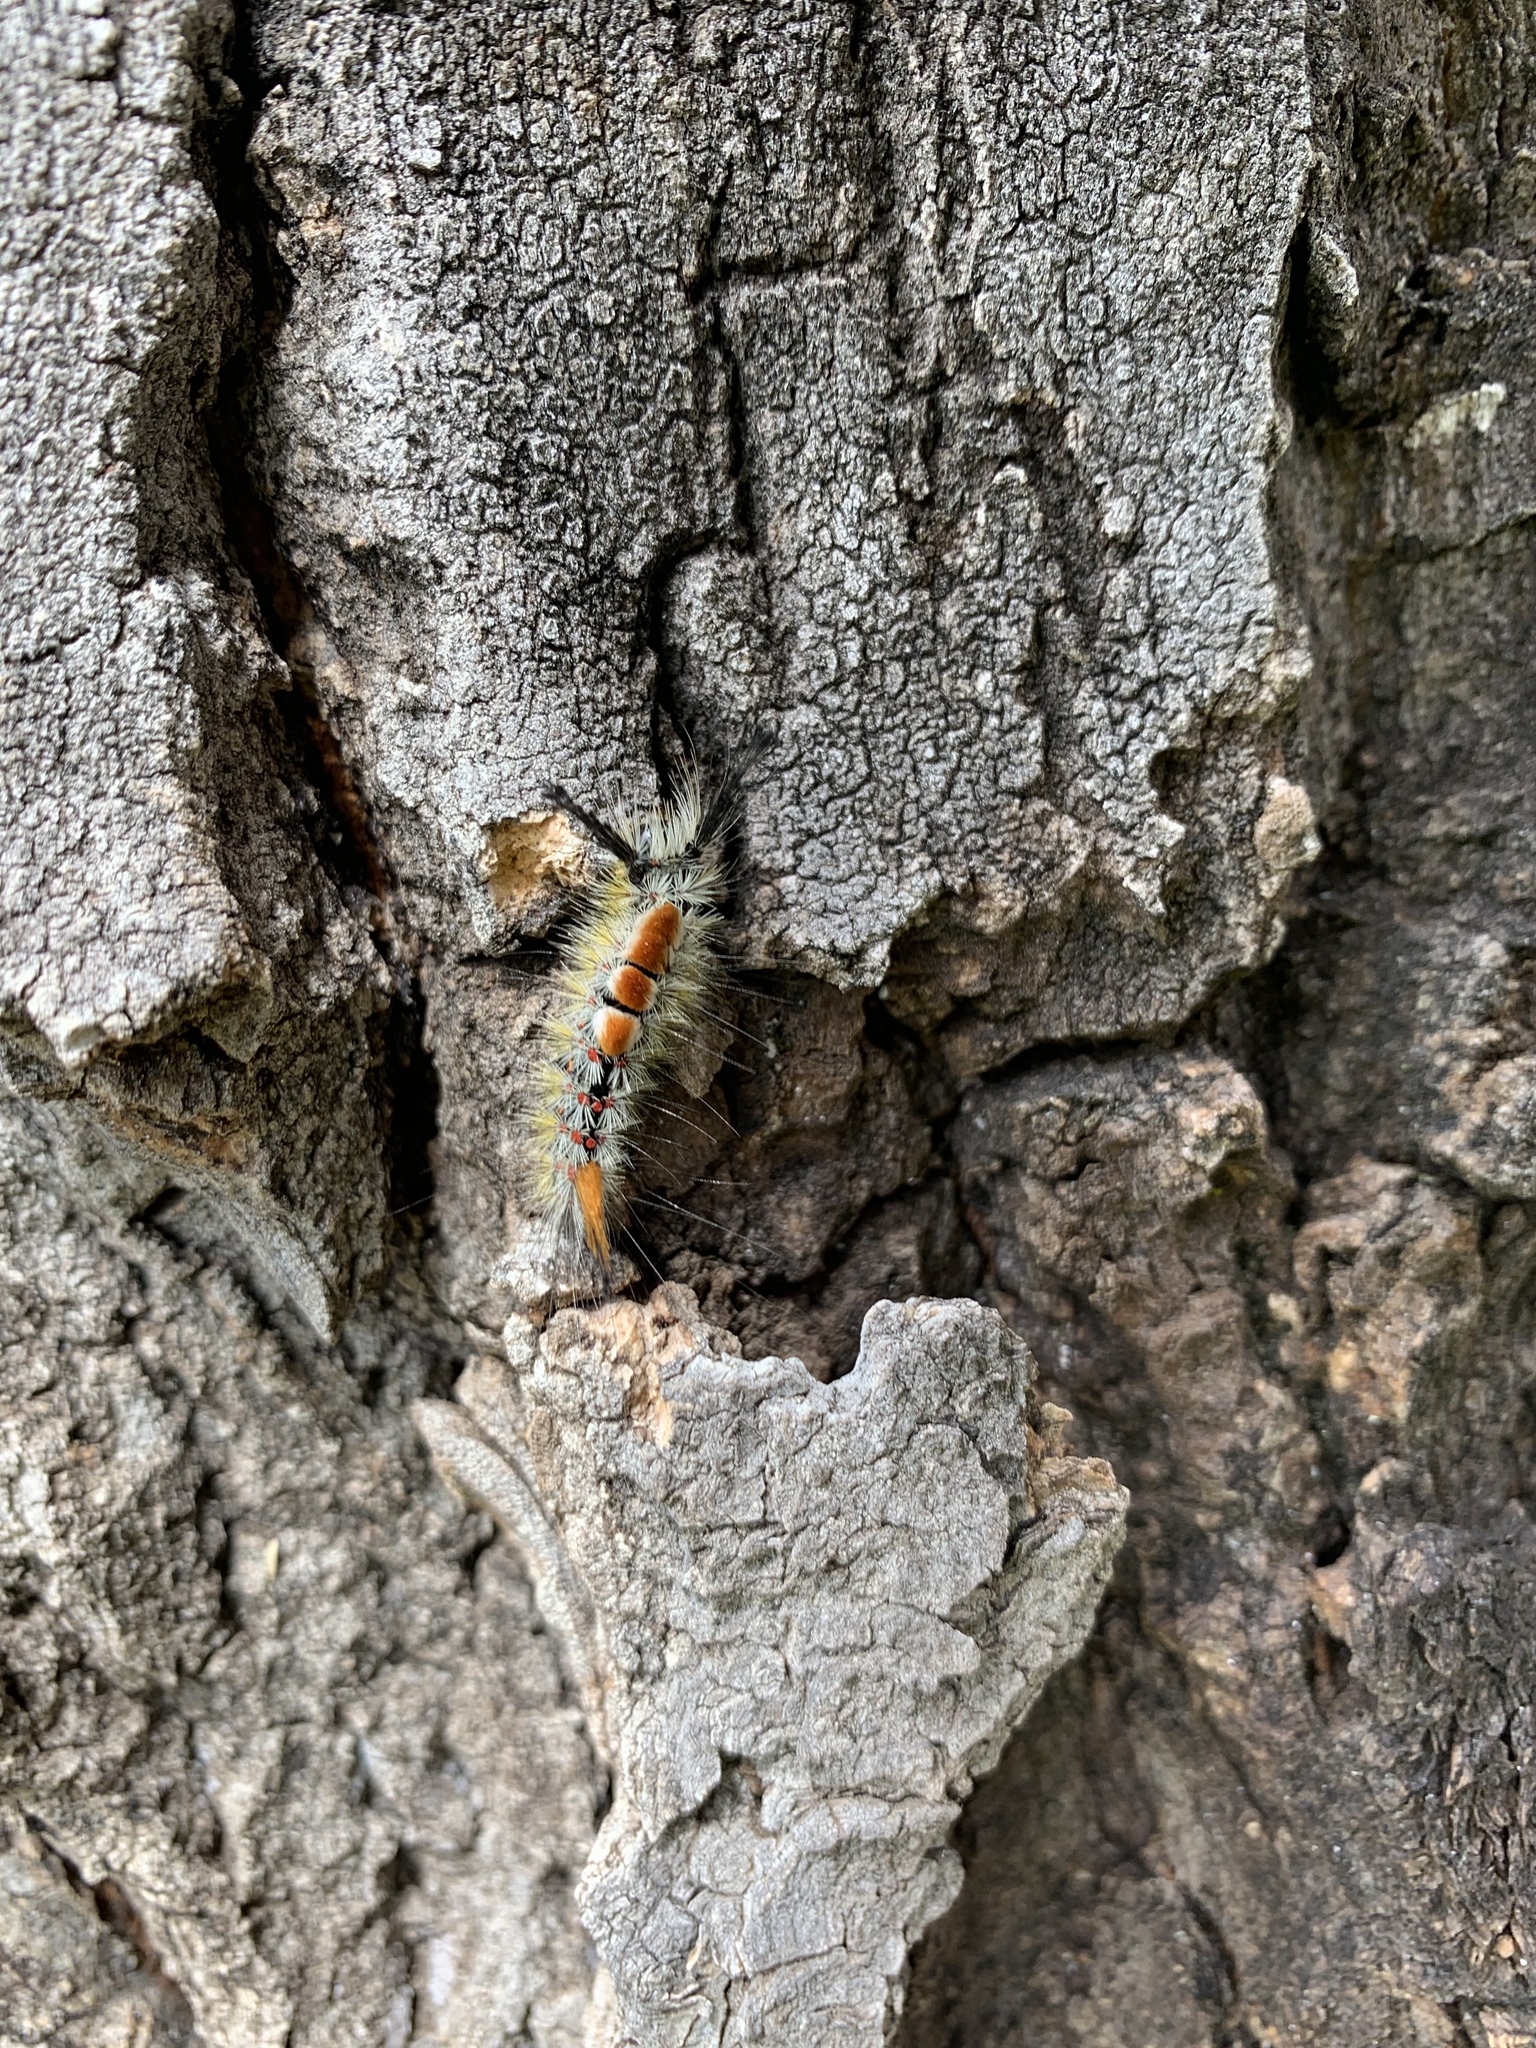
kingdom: Animalia
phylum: Arthropoda
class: Insecta
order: Lepidoptera
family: Erebidae
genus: Orgyia
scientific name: Orgyia pseudotsugata
